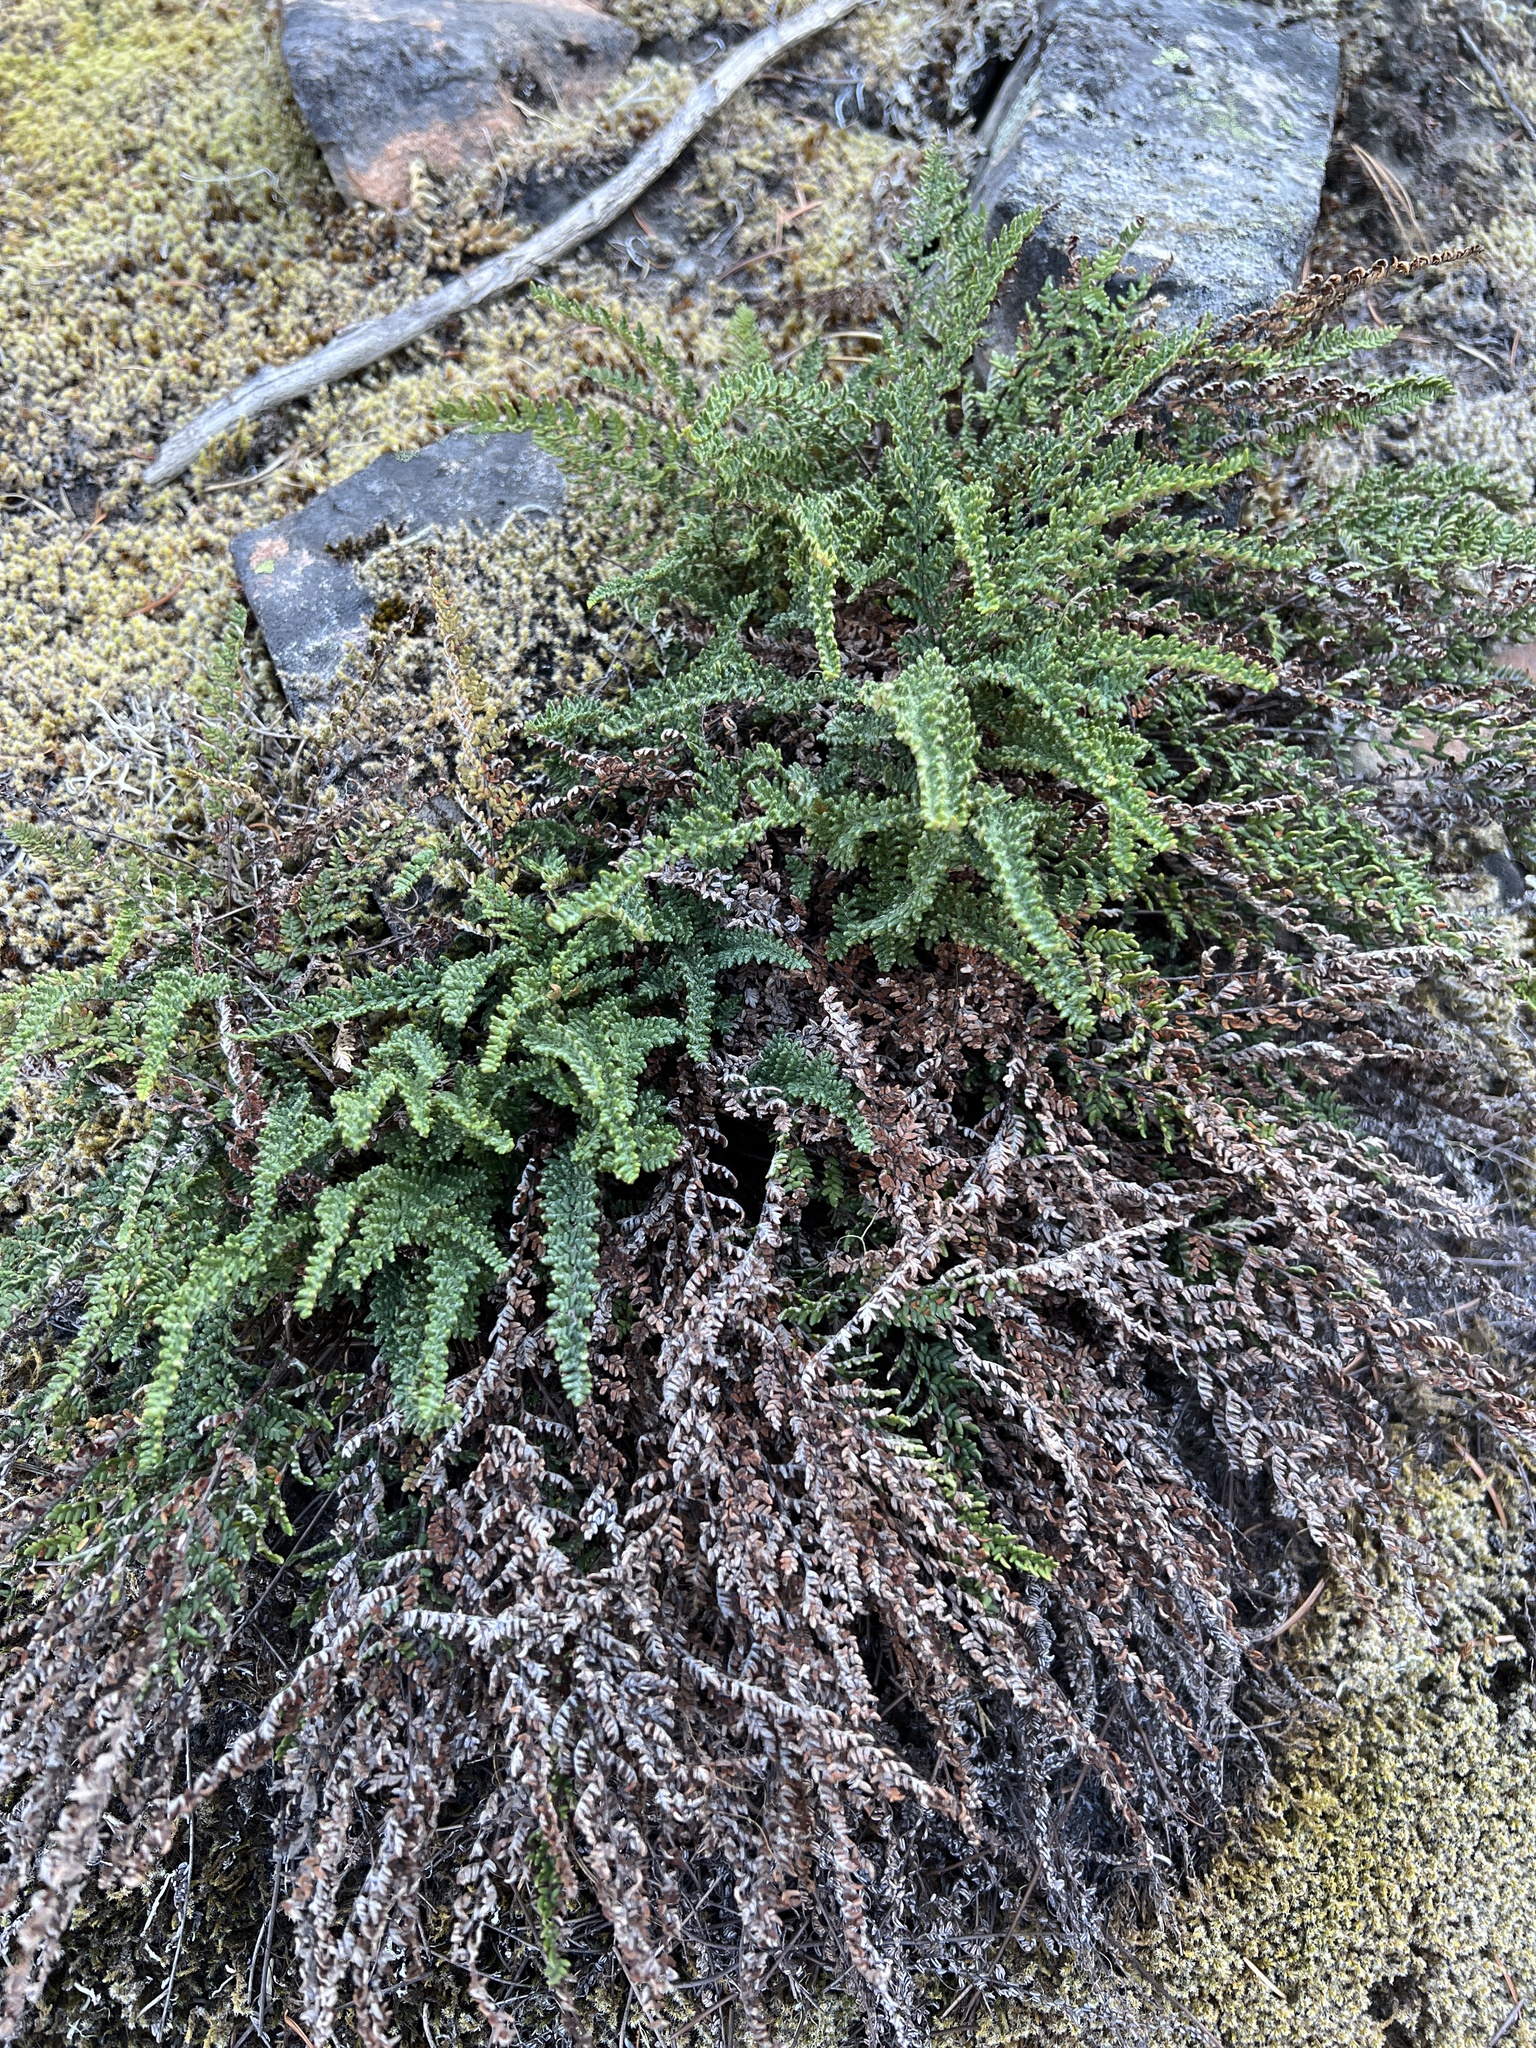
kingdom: Plantae
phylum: Tracheophyta
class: Polypodiopsida
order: Polypodiales
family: Pteridaceae
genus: Myriopteris
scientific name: Myriopteris gracillima
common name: Lace fern
